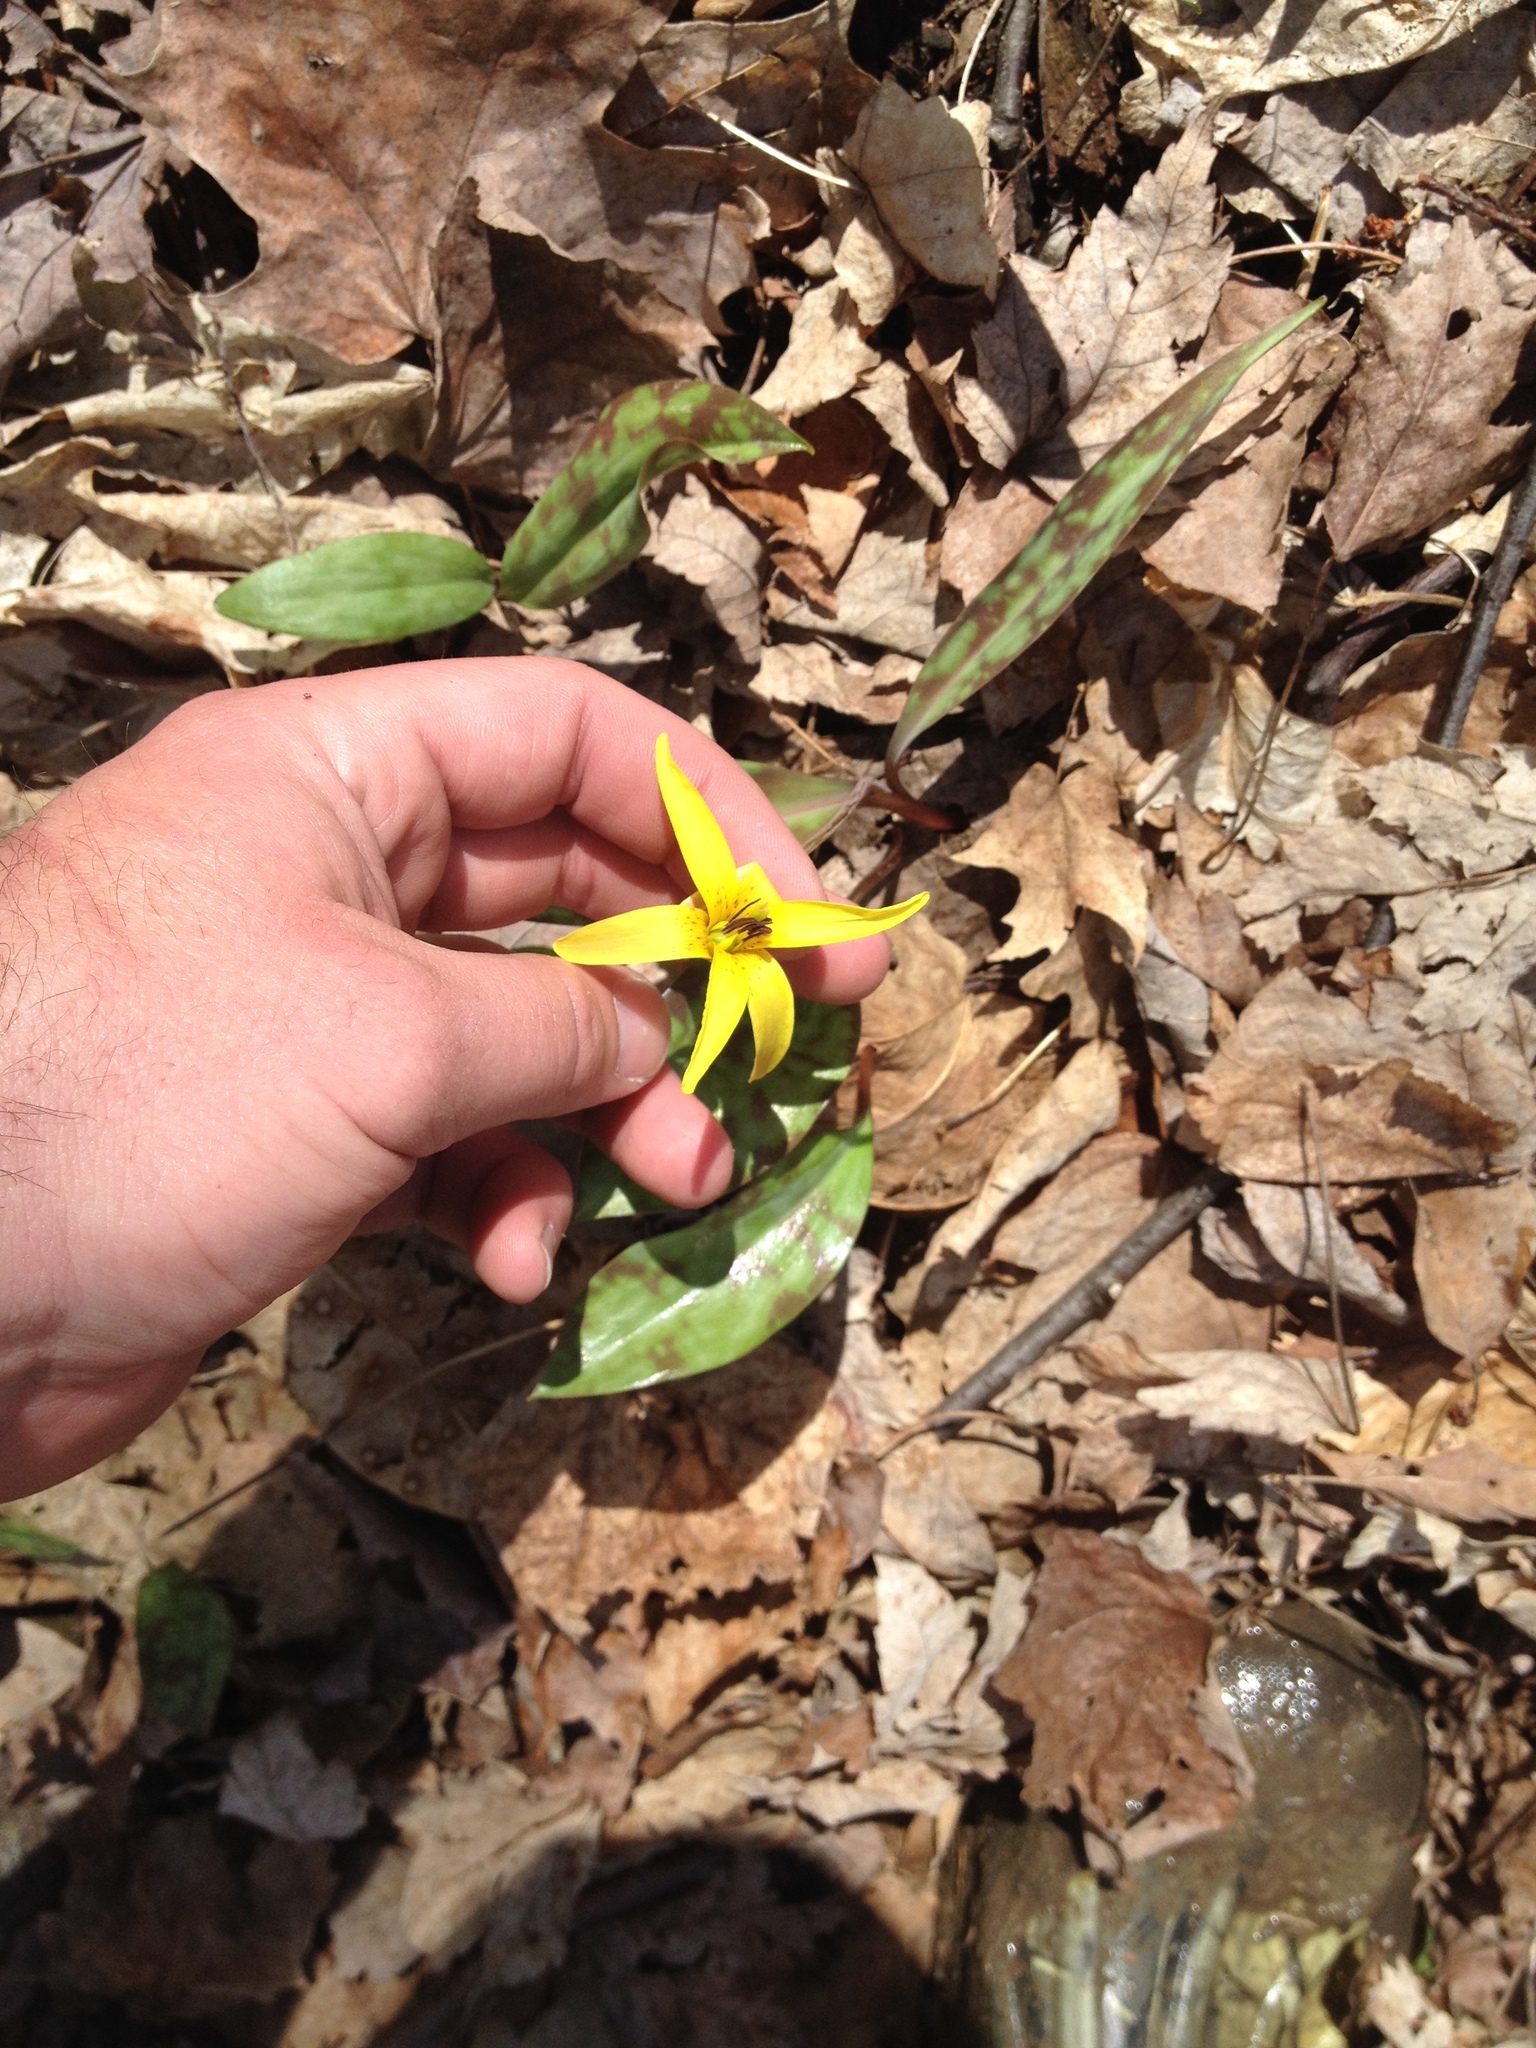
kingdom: Plantae
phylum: Tracheophyta
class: Liliopsida
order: Liliales
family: Liliaceae
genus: Erythronium
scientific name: Erythronium americanum
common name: Yellow adder's-tongue
